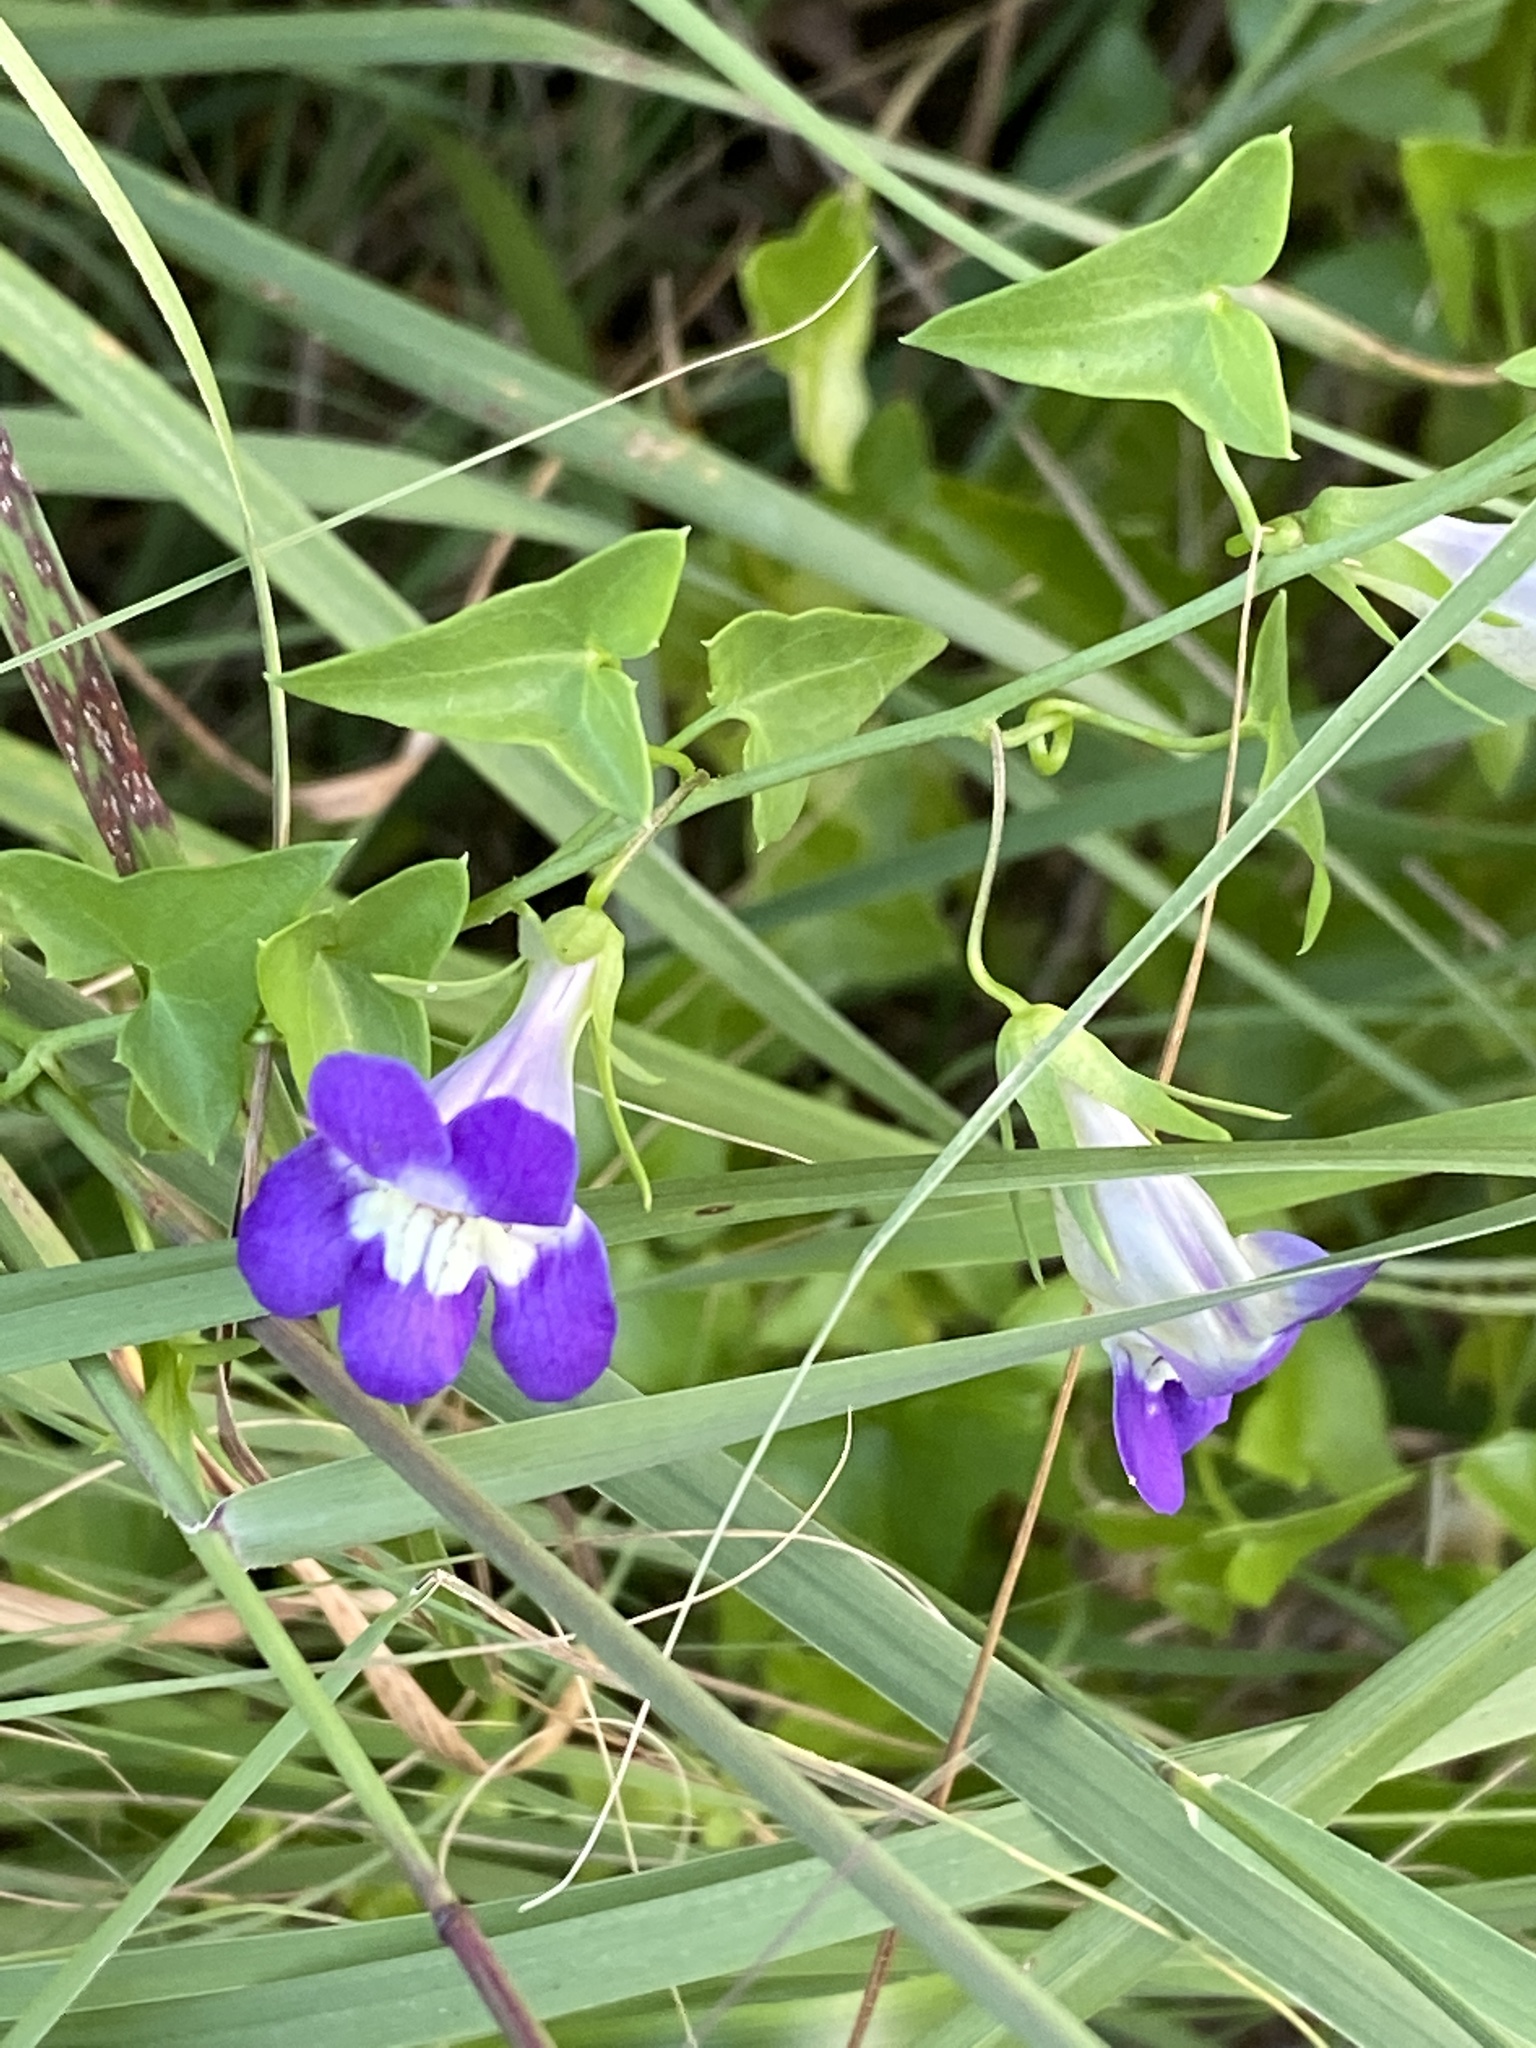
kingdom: Plantae
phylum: Tracheophyta
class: Magnoliopsida
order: Lamiales
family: Plantaginaceae
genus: Maurandella
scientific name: Maurandella antirrhiniflora
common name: Violet twining-snapdragon
